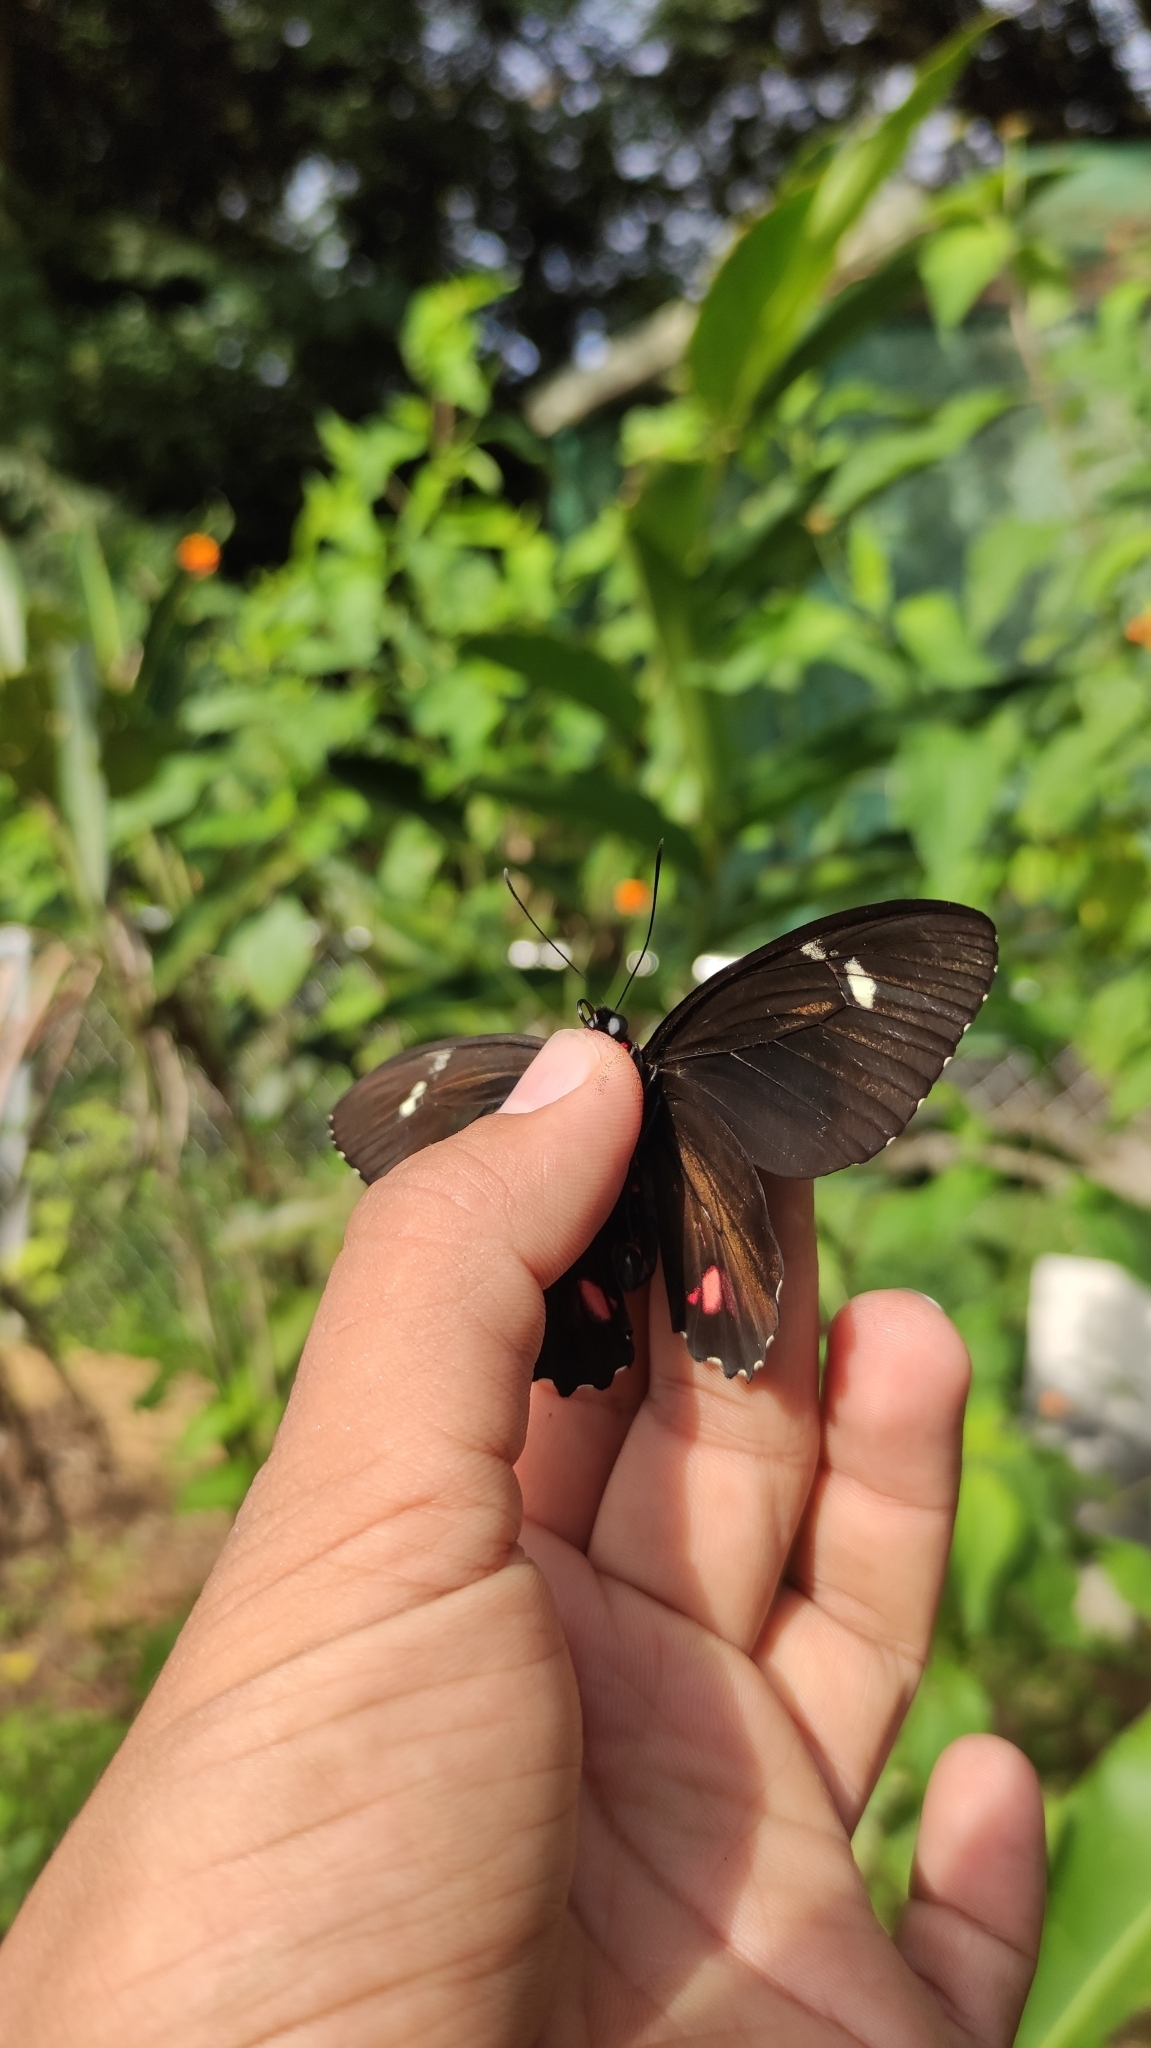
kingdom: Animalia
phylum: Arthropoda
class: Insecta
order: Lepidoptera
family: Papilionidae
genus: Parides
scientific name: Parides childrenae
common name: Green-celled cattleheart
